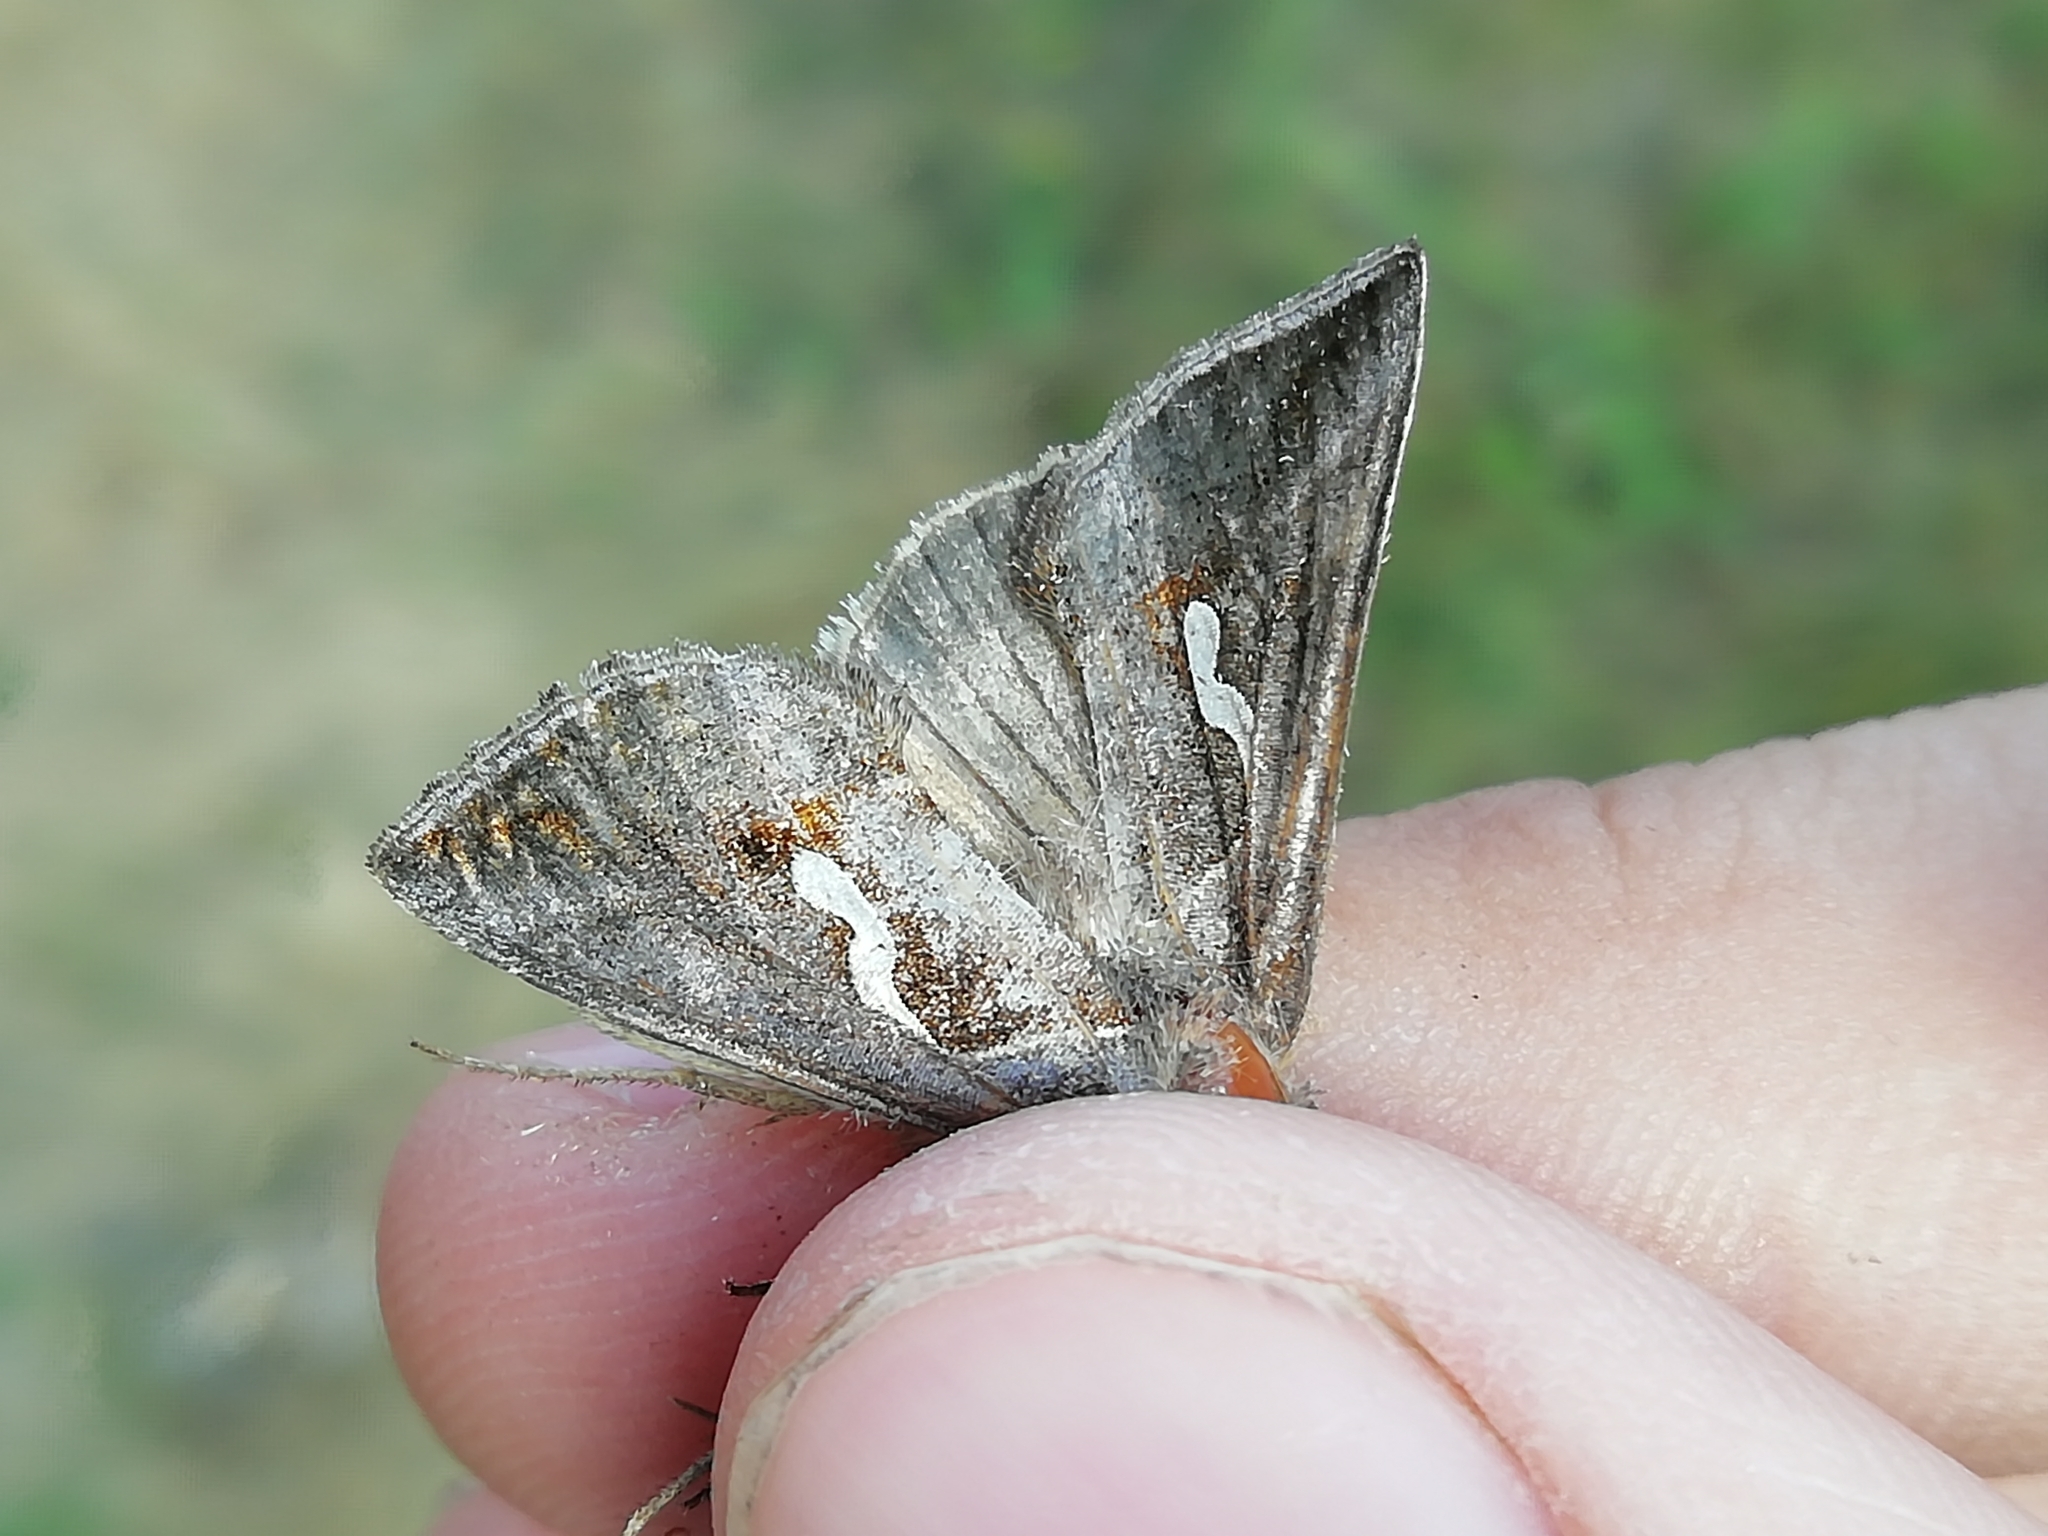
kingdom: Animalia
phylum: Arthropoda
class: Insecta
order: Lepidoptera
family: Noctuidae
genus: Macdunnoughia
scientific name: Macdunnoughia confusa
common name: Dewick's plusia
